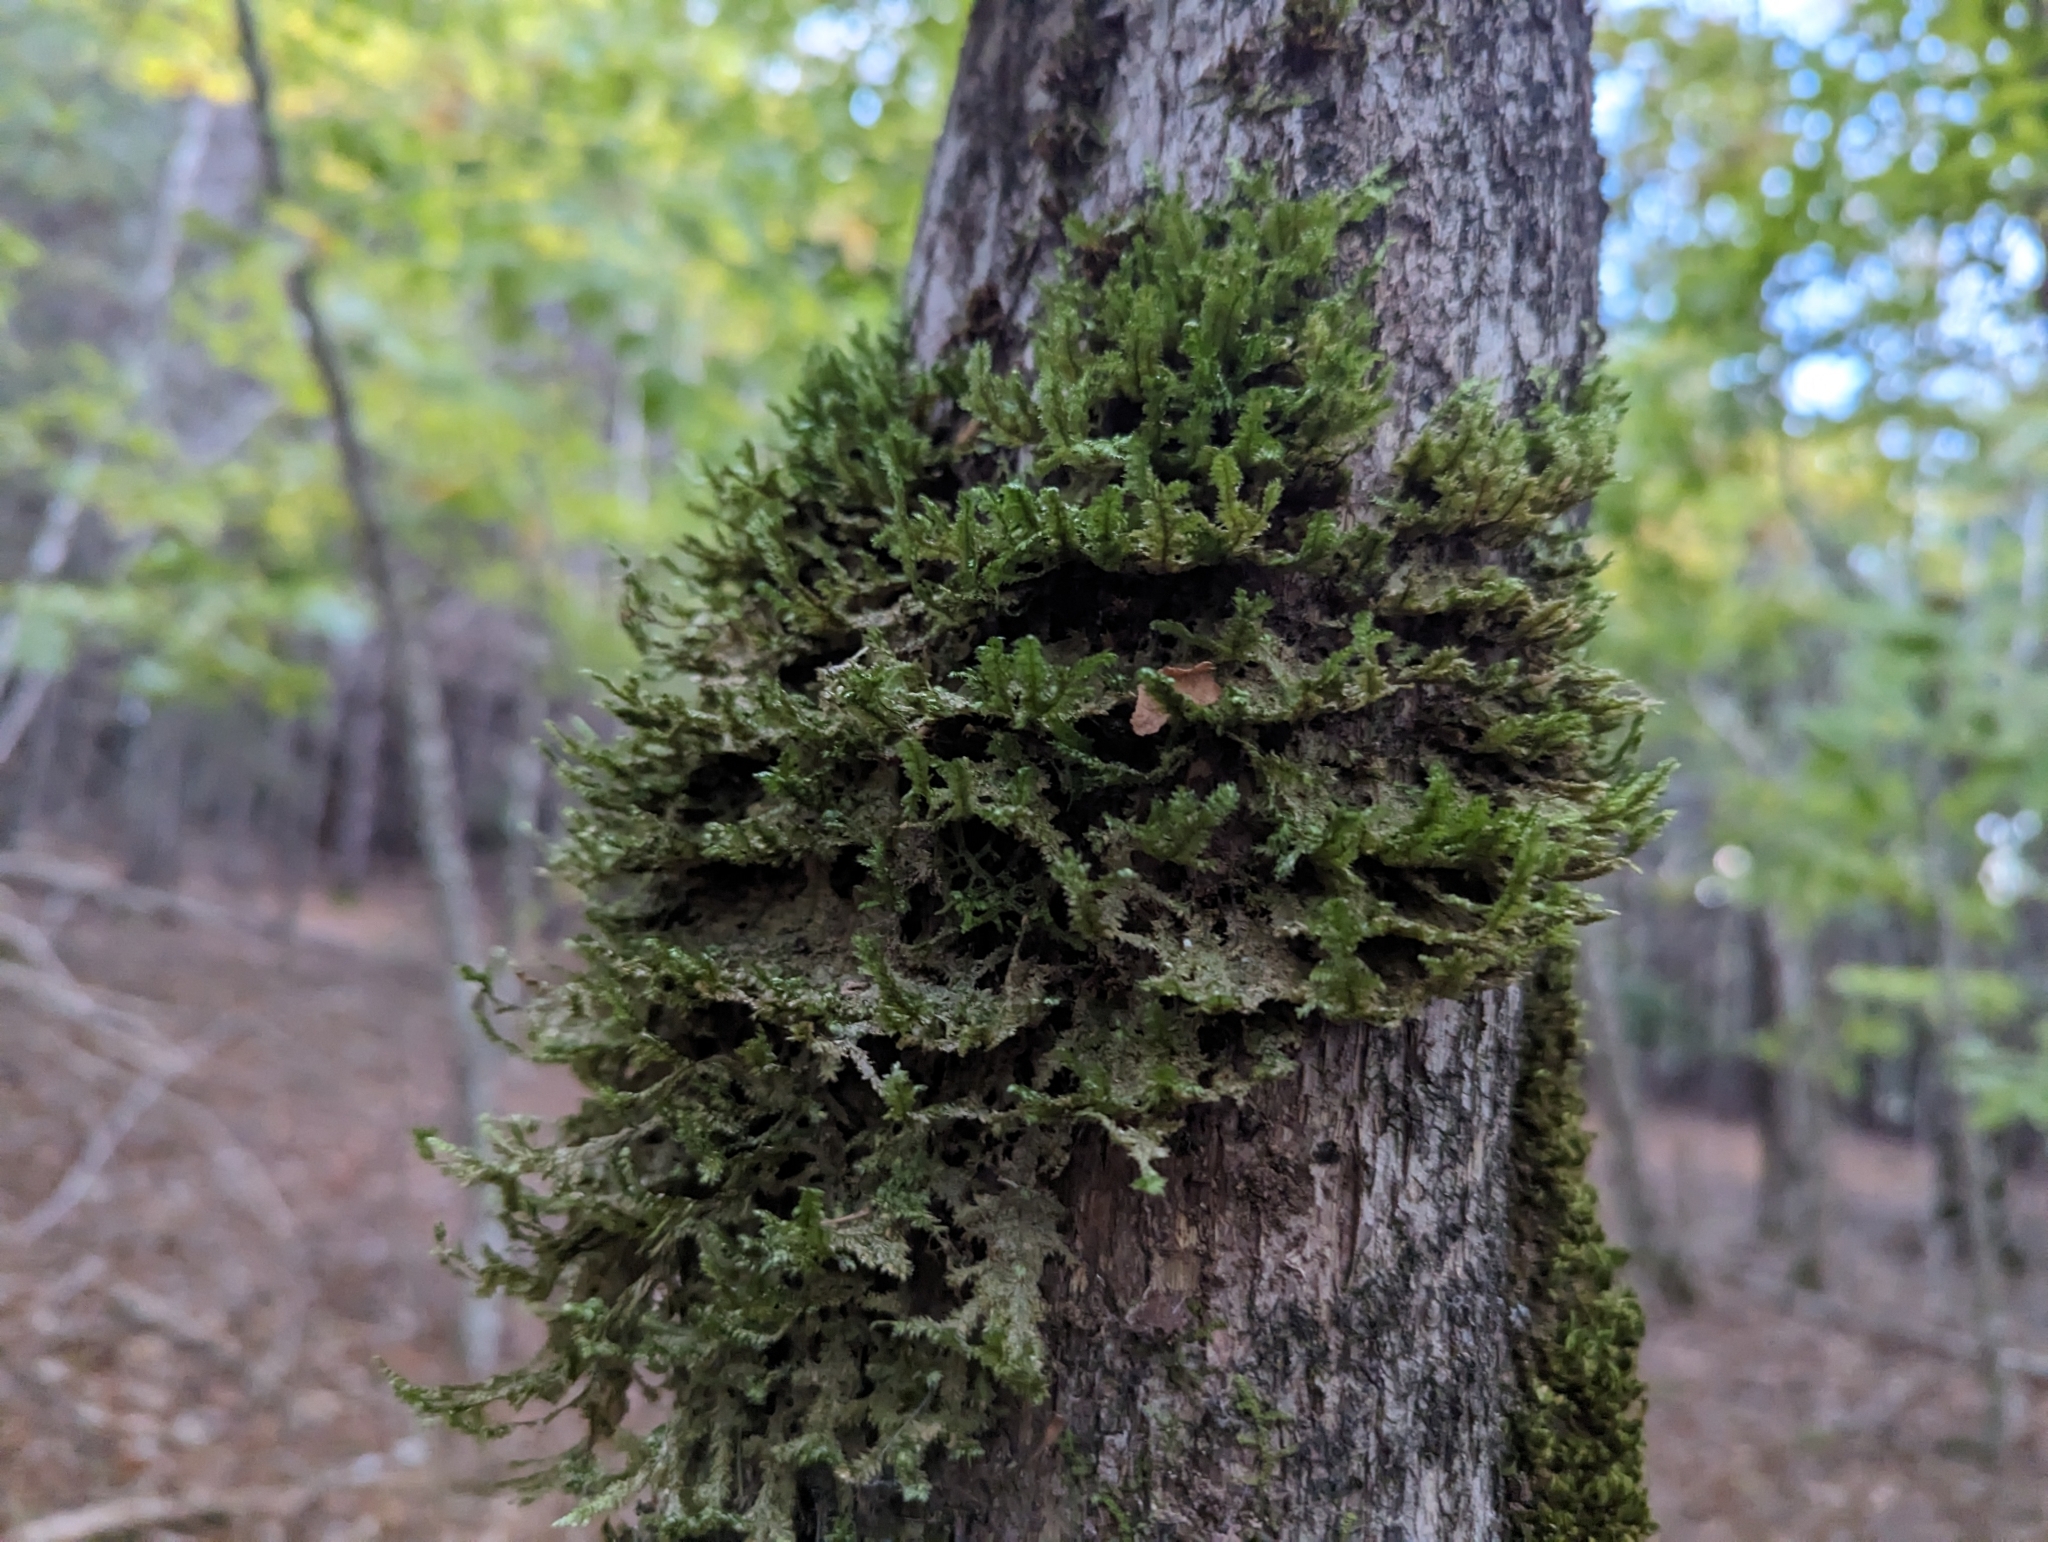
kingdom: Plantae
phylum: Bryophyta
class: Bryopsida
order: Hypnales
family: Neckeraceae
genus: Neckera
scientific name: Neckera pennata
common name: Feathery neckera
